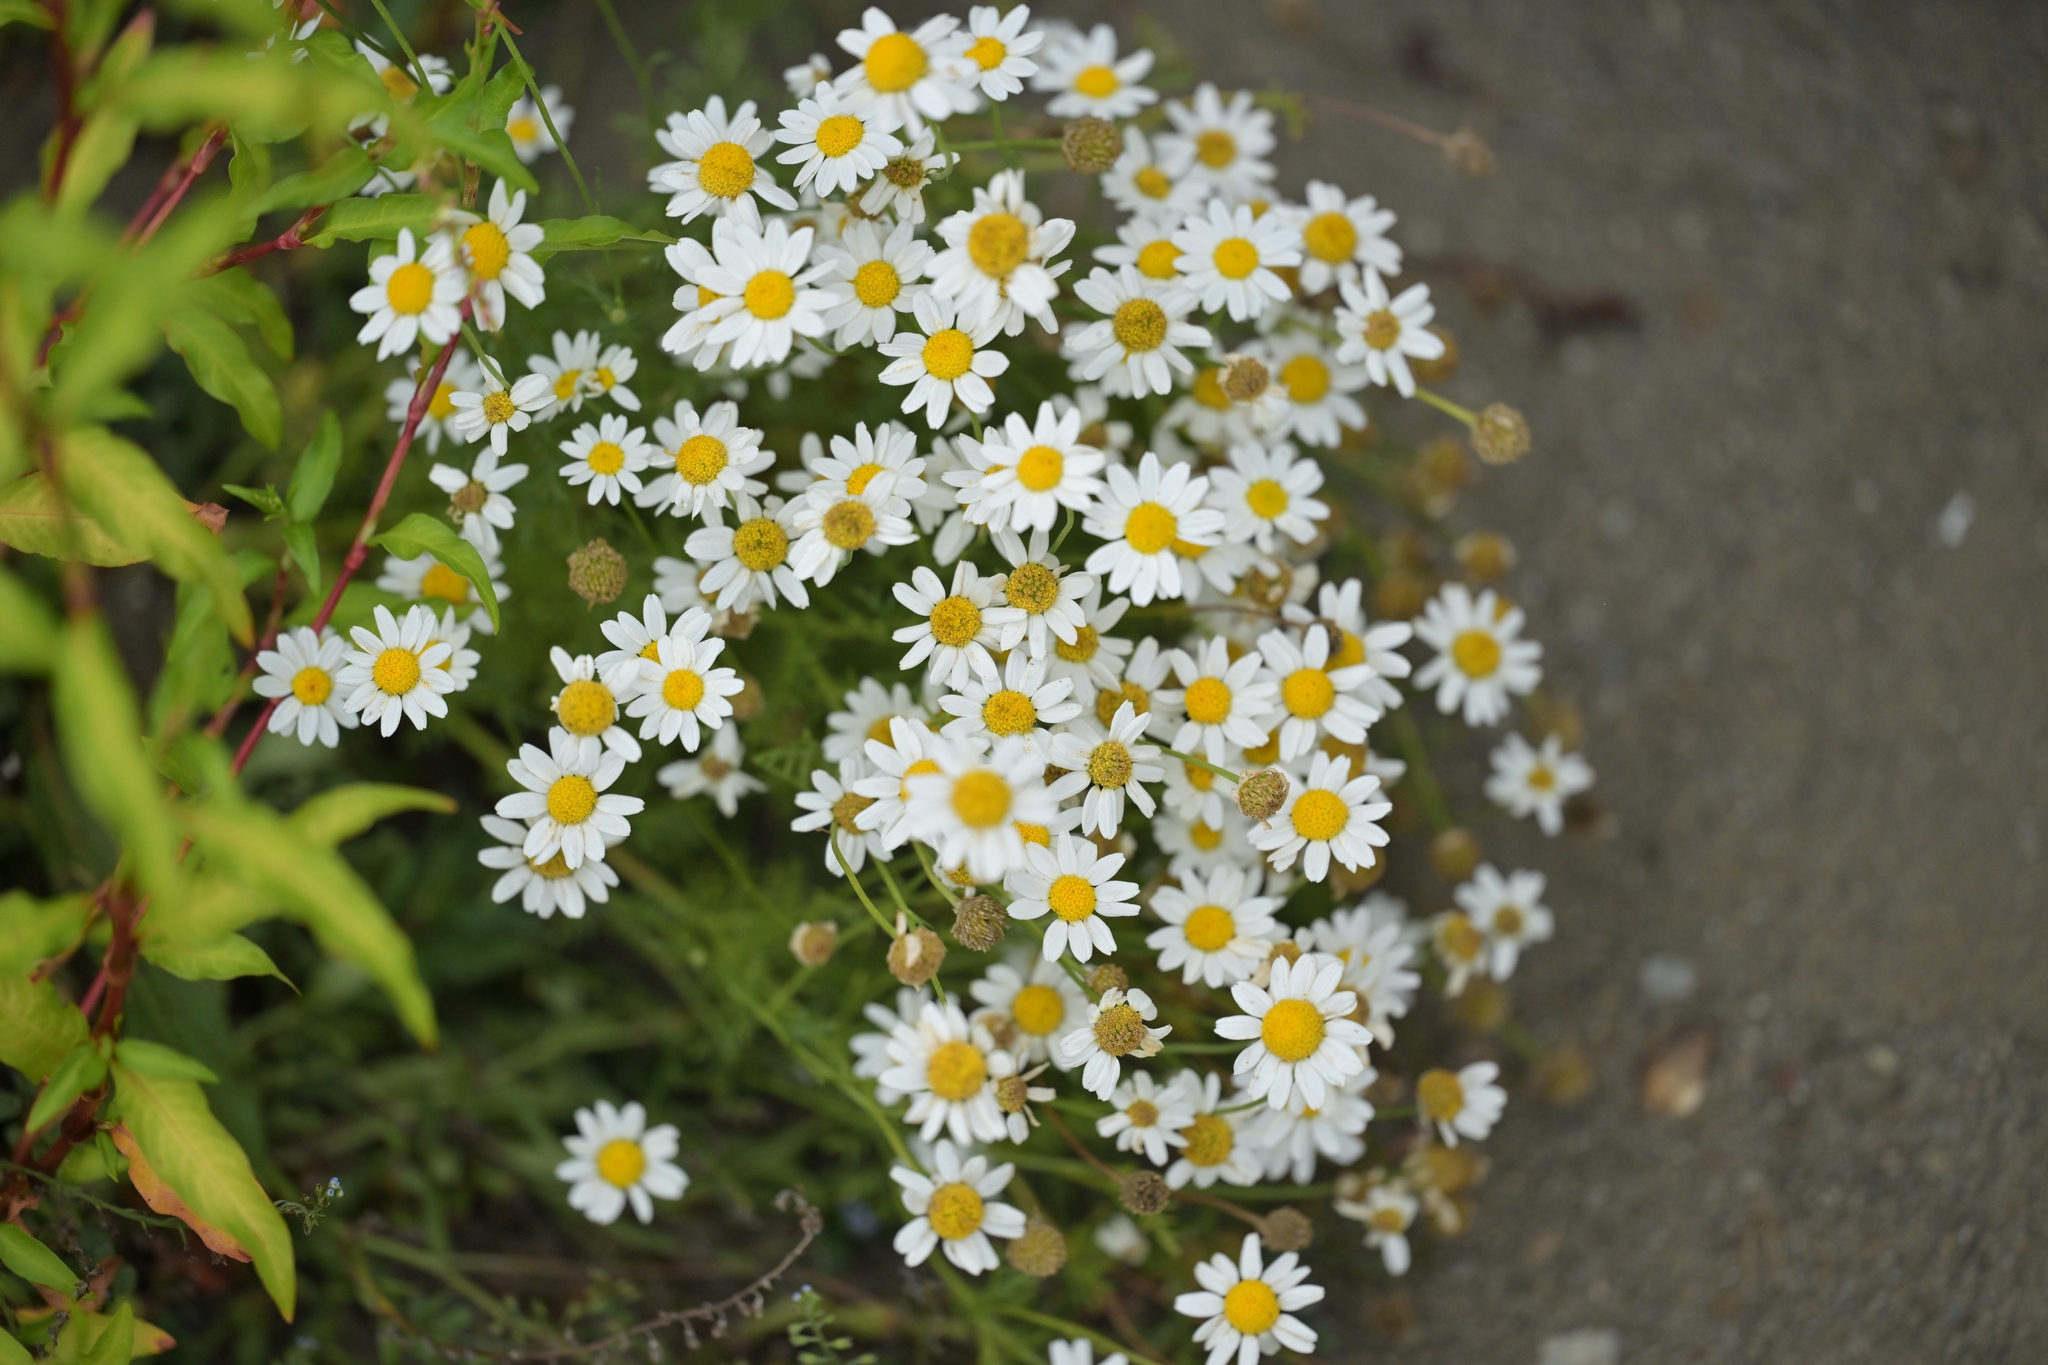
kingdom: Plantae
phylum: Tracheophyta
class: Magnoliopsida
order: Asterales
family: Asteraceae
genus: Tanacetum
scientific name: Tanacetum parthenium
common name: Feverfew
